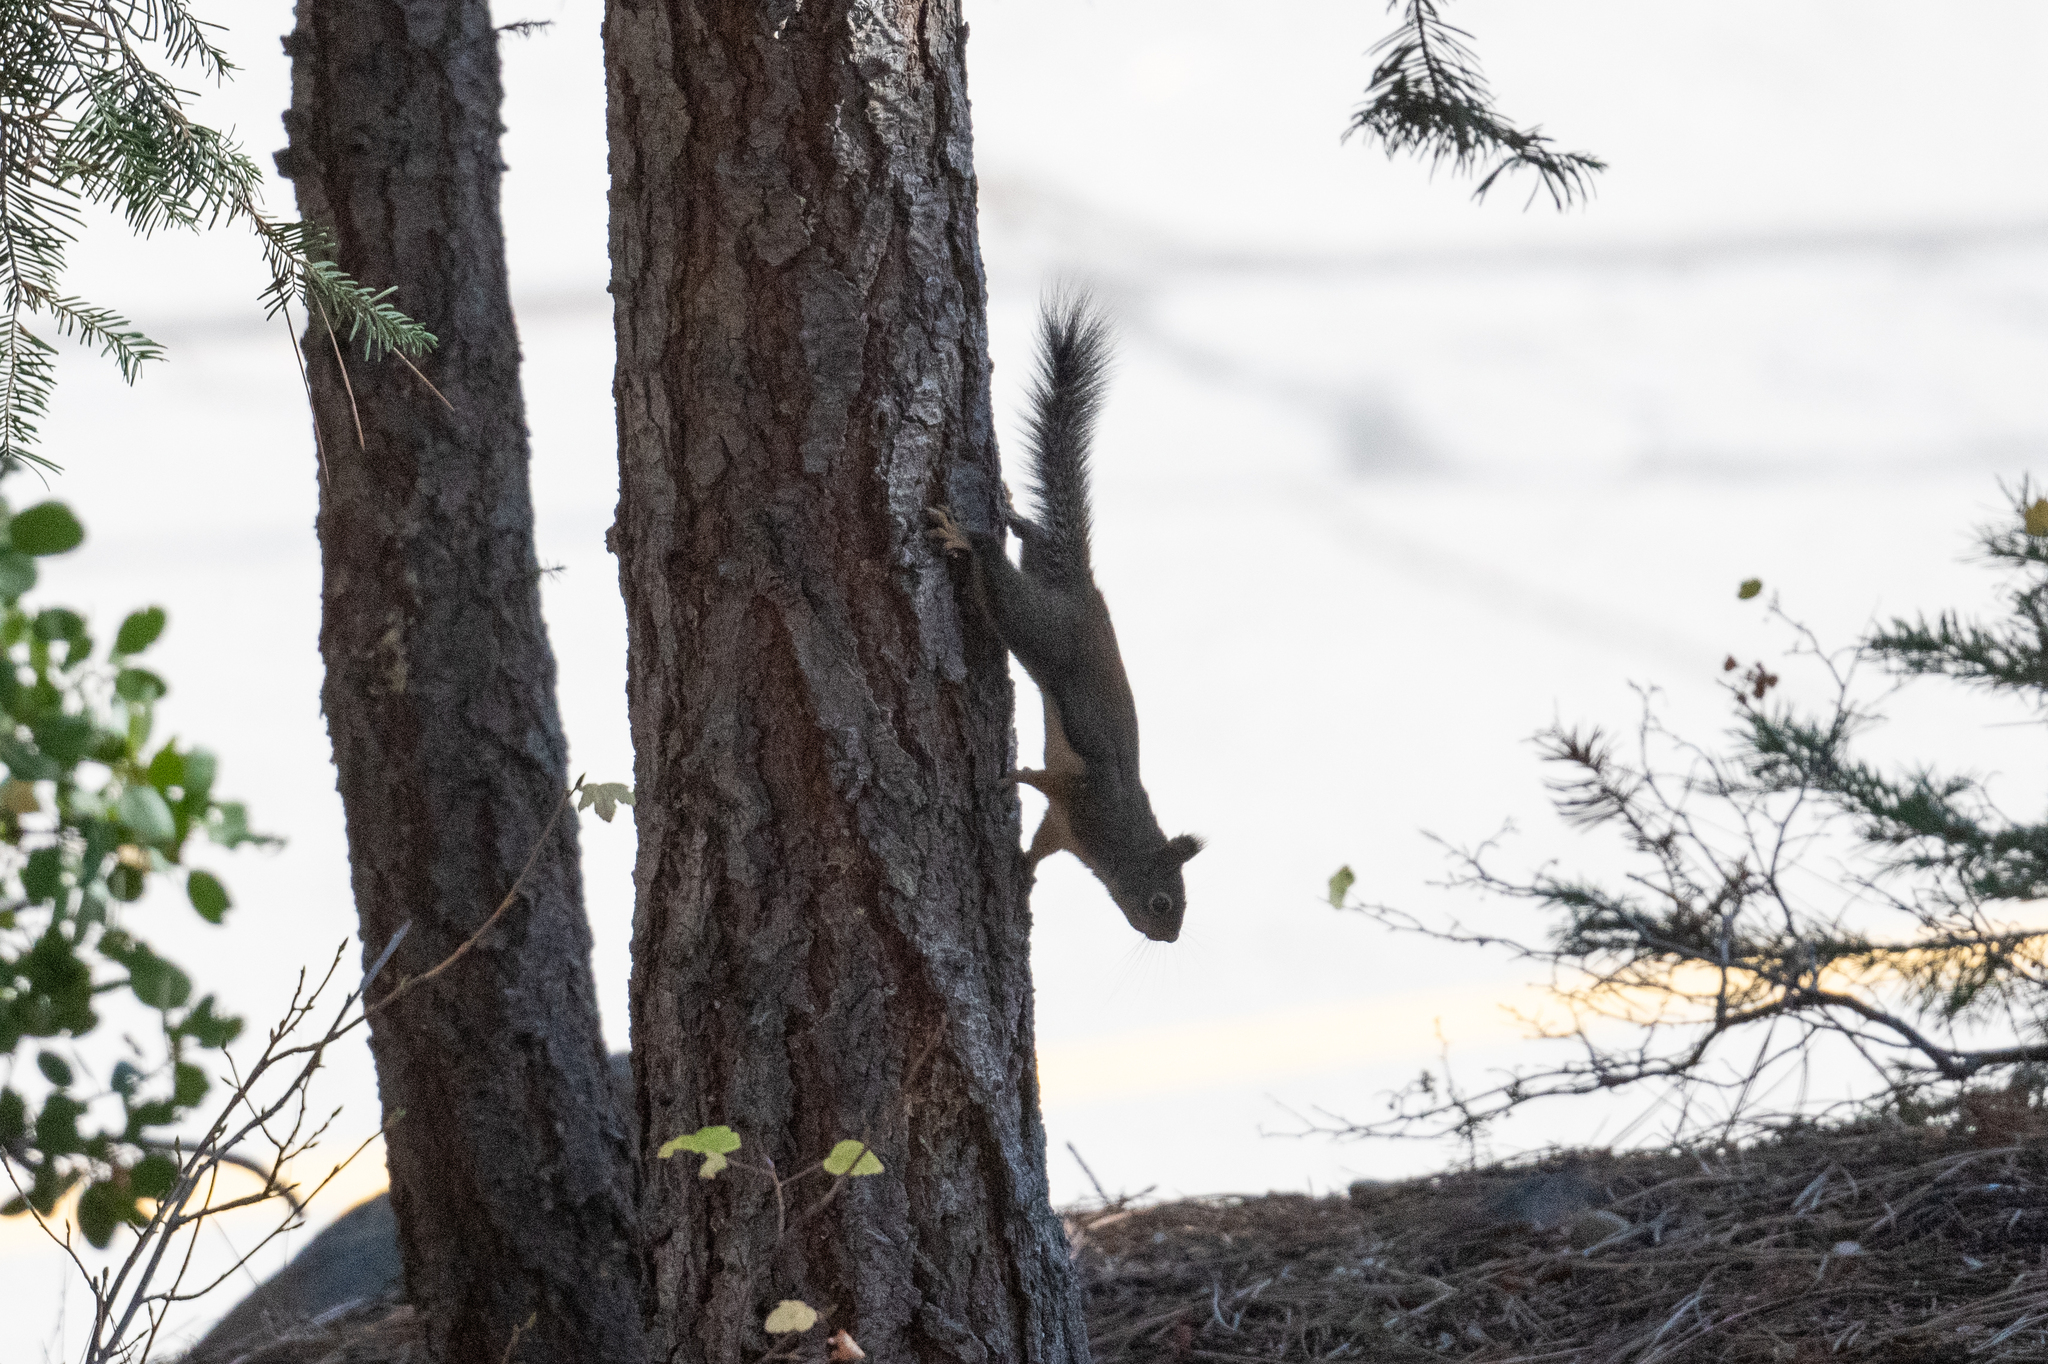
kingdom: Animalia
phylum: Chordata
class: Mammalia
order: Rodentia
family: Sciuridae
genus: Tamiasciurus
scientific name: Tamiasciurus douglasii
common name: Douglas's squirrel
